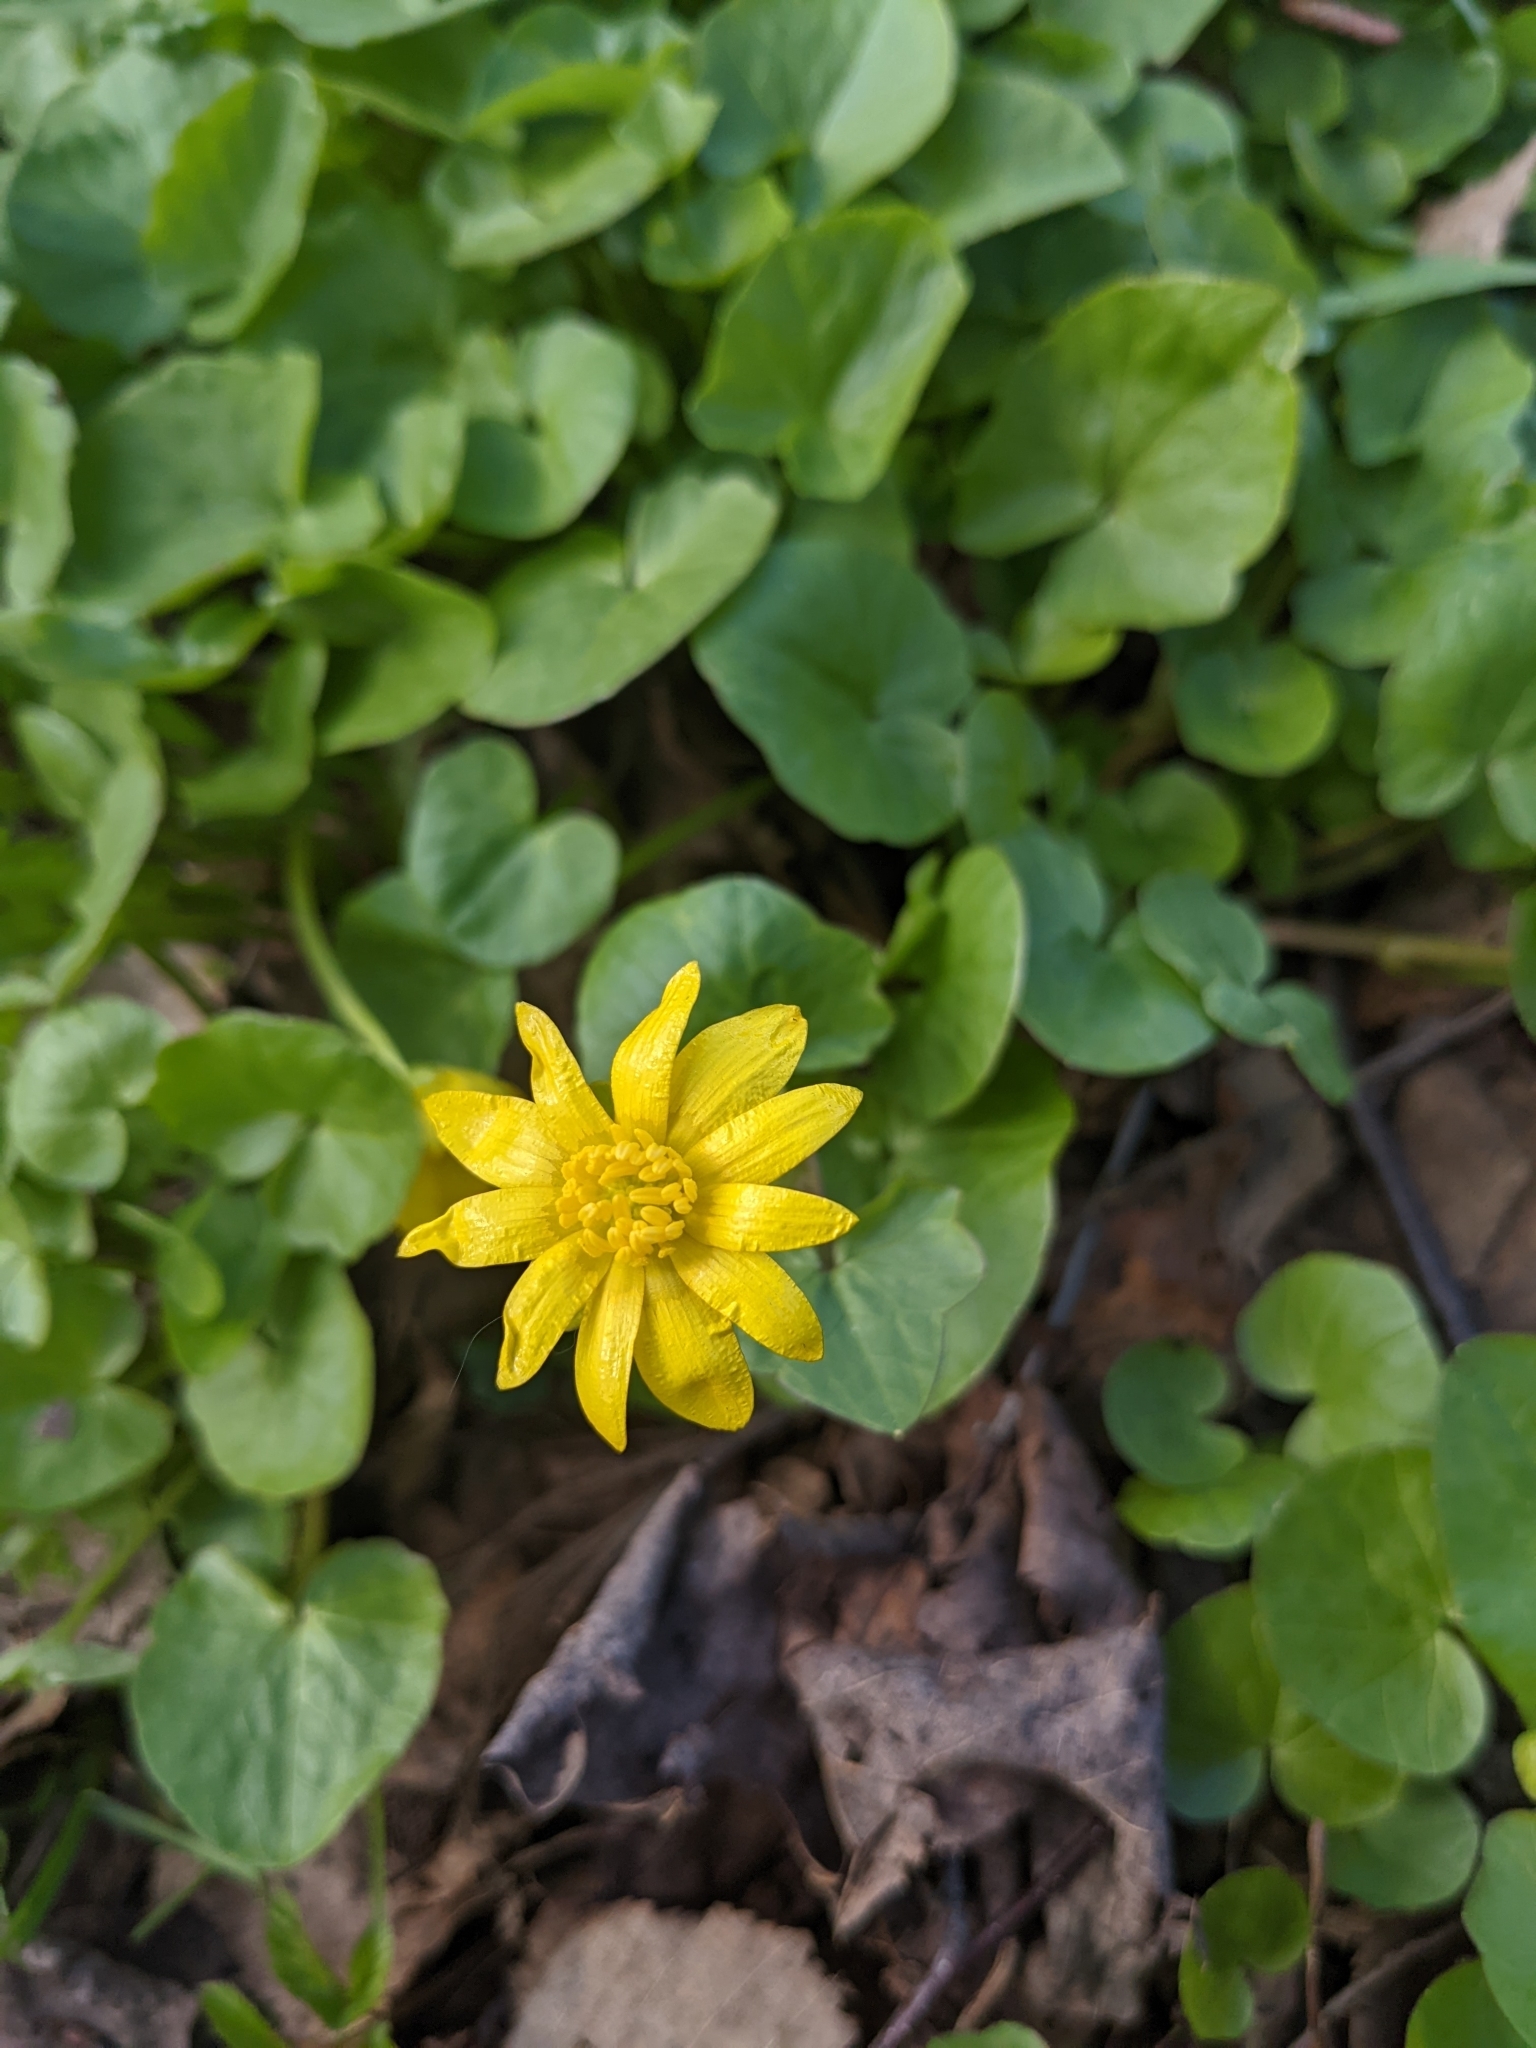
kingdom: Plantae
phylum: Tracheophyta
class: Magnoliopsida
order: Ranunculales
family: Ranunculaceae
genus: Ficaria
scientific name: Ficaria verna
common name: Lesser celandine
